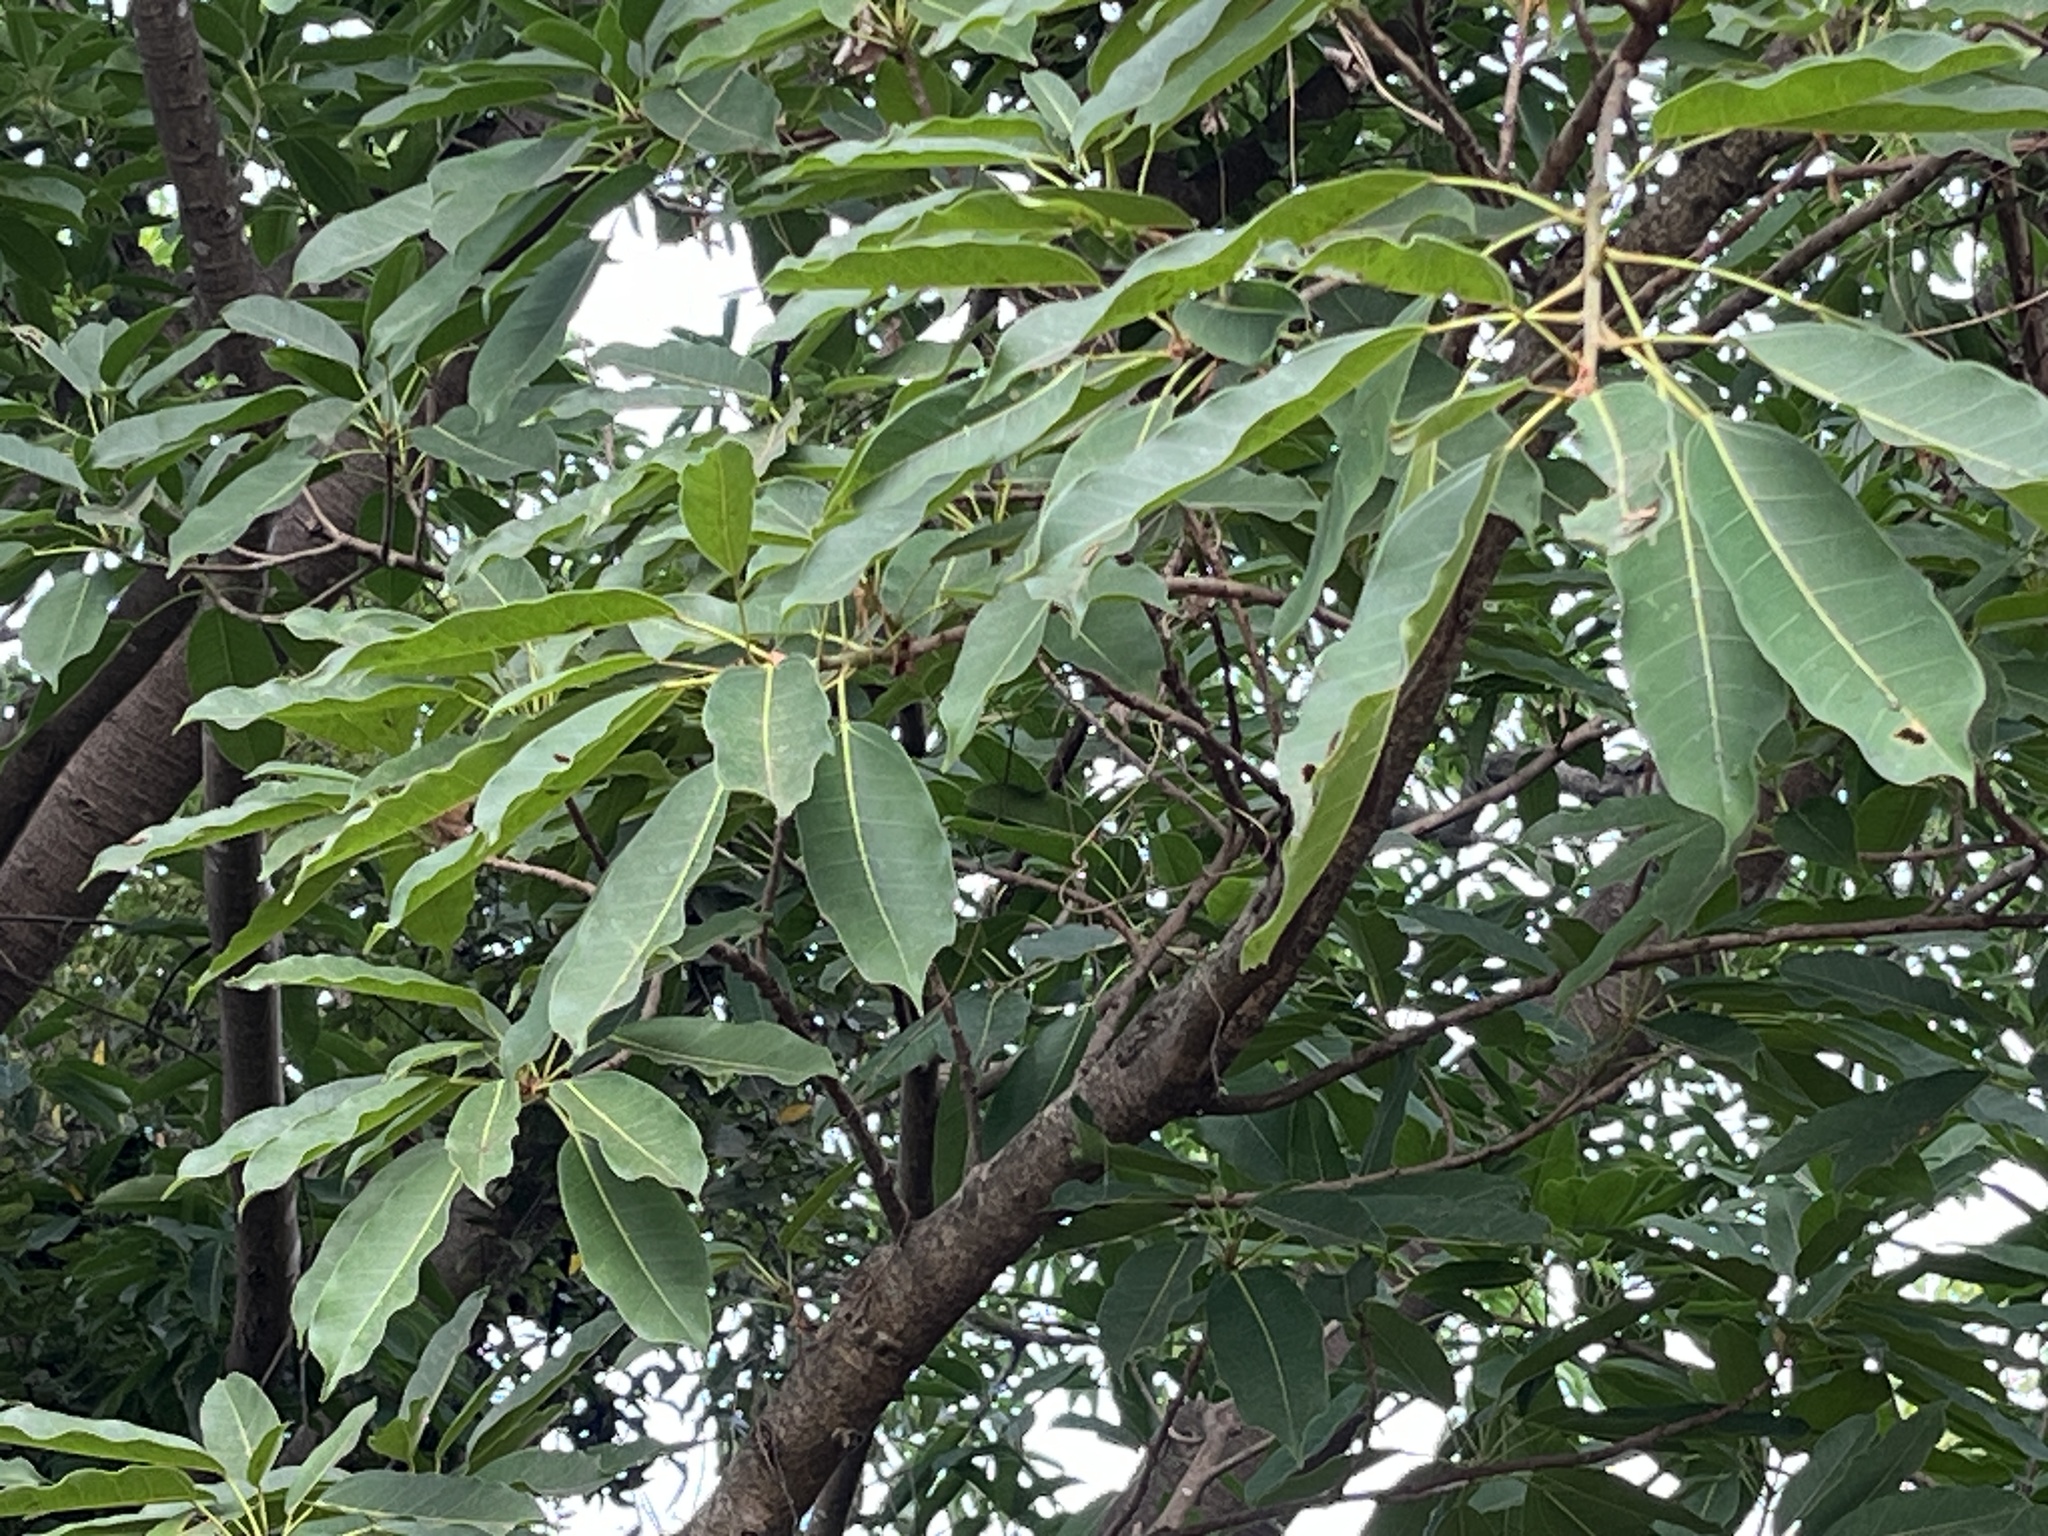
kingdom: Plantae
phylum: Tracheophyta
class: Magnoliopsida
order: Rosales
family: Moraceae
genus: Ficus
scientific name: Ficus caulocarpa
